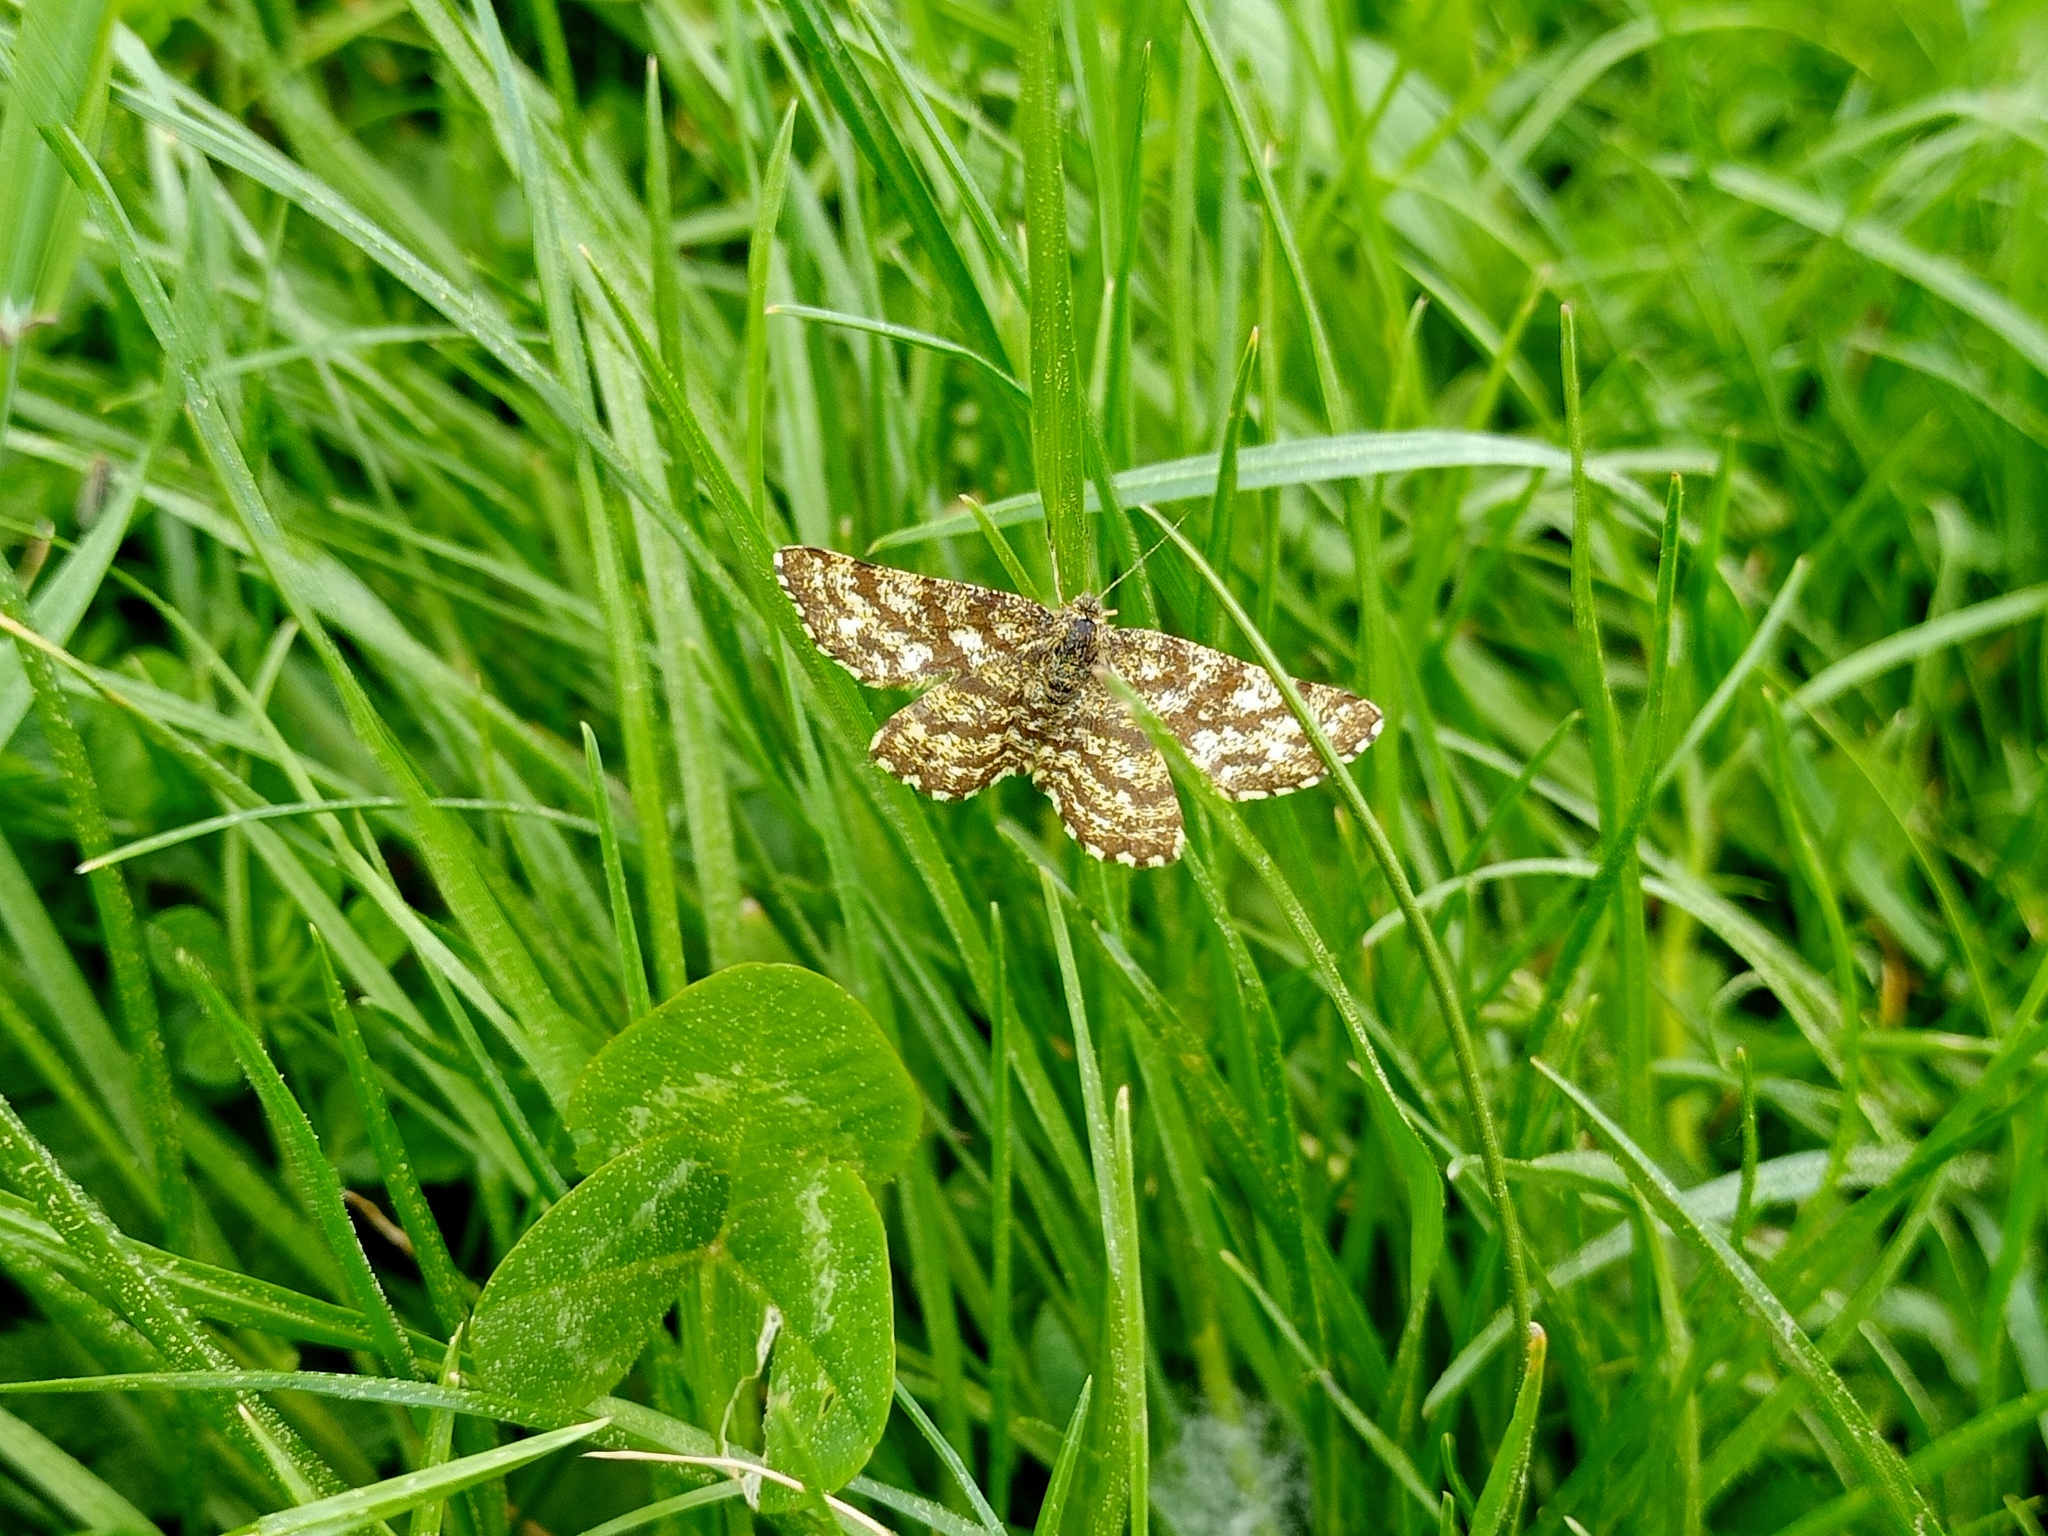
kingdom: Animalia
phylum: Arthropoda
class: Insecta
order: Lepidoptera
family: Geometridae
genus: Ematurga
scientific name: Ematurga atomaria
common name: Common heath
